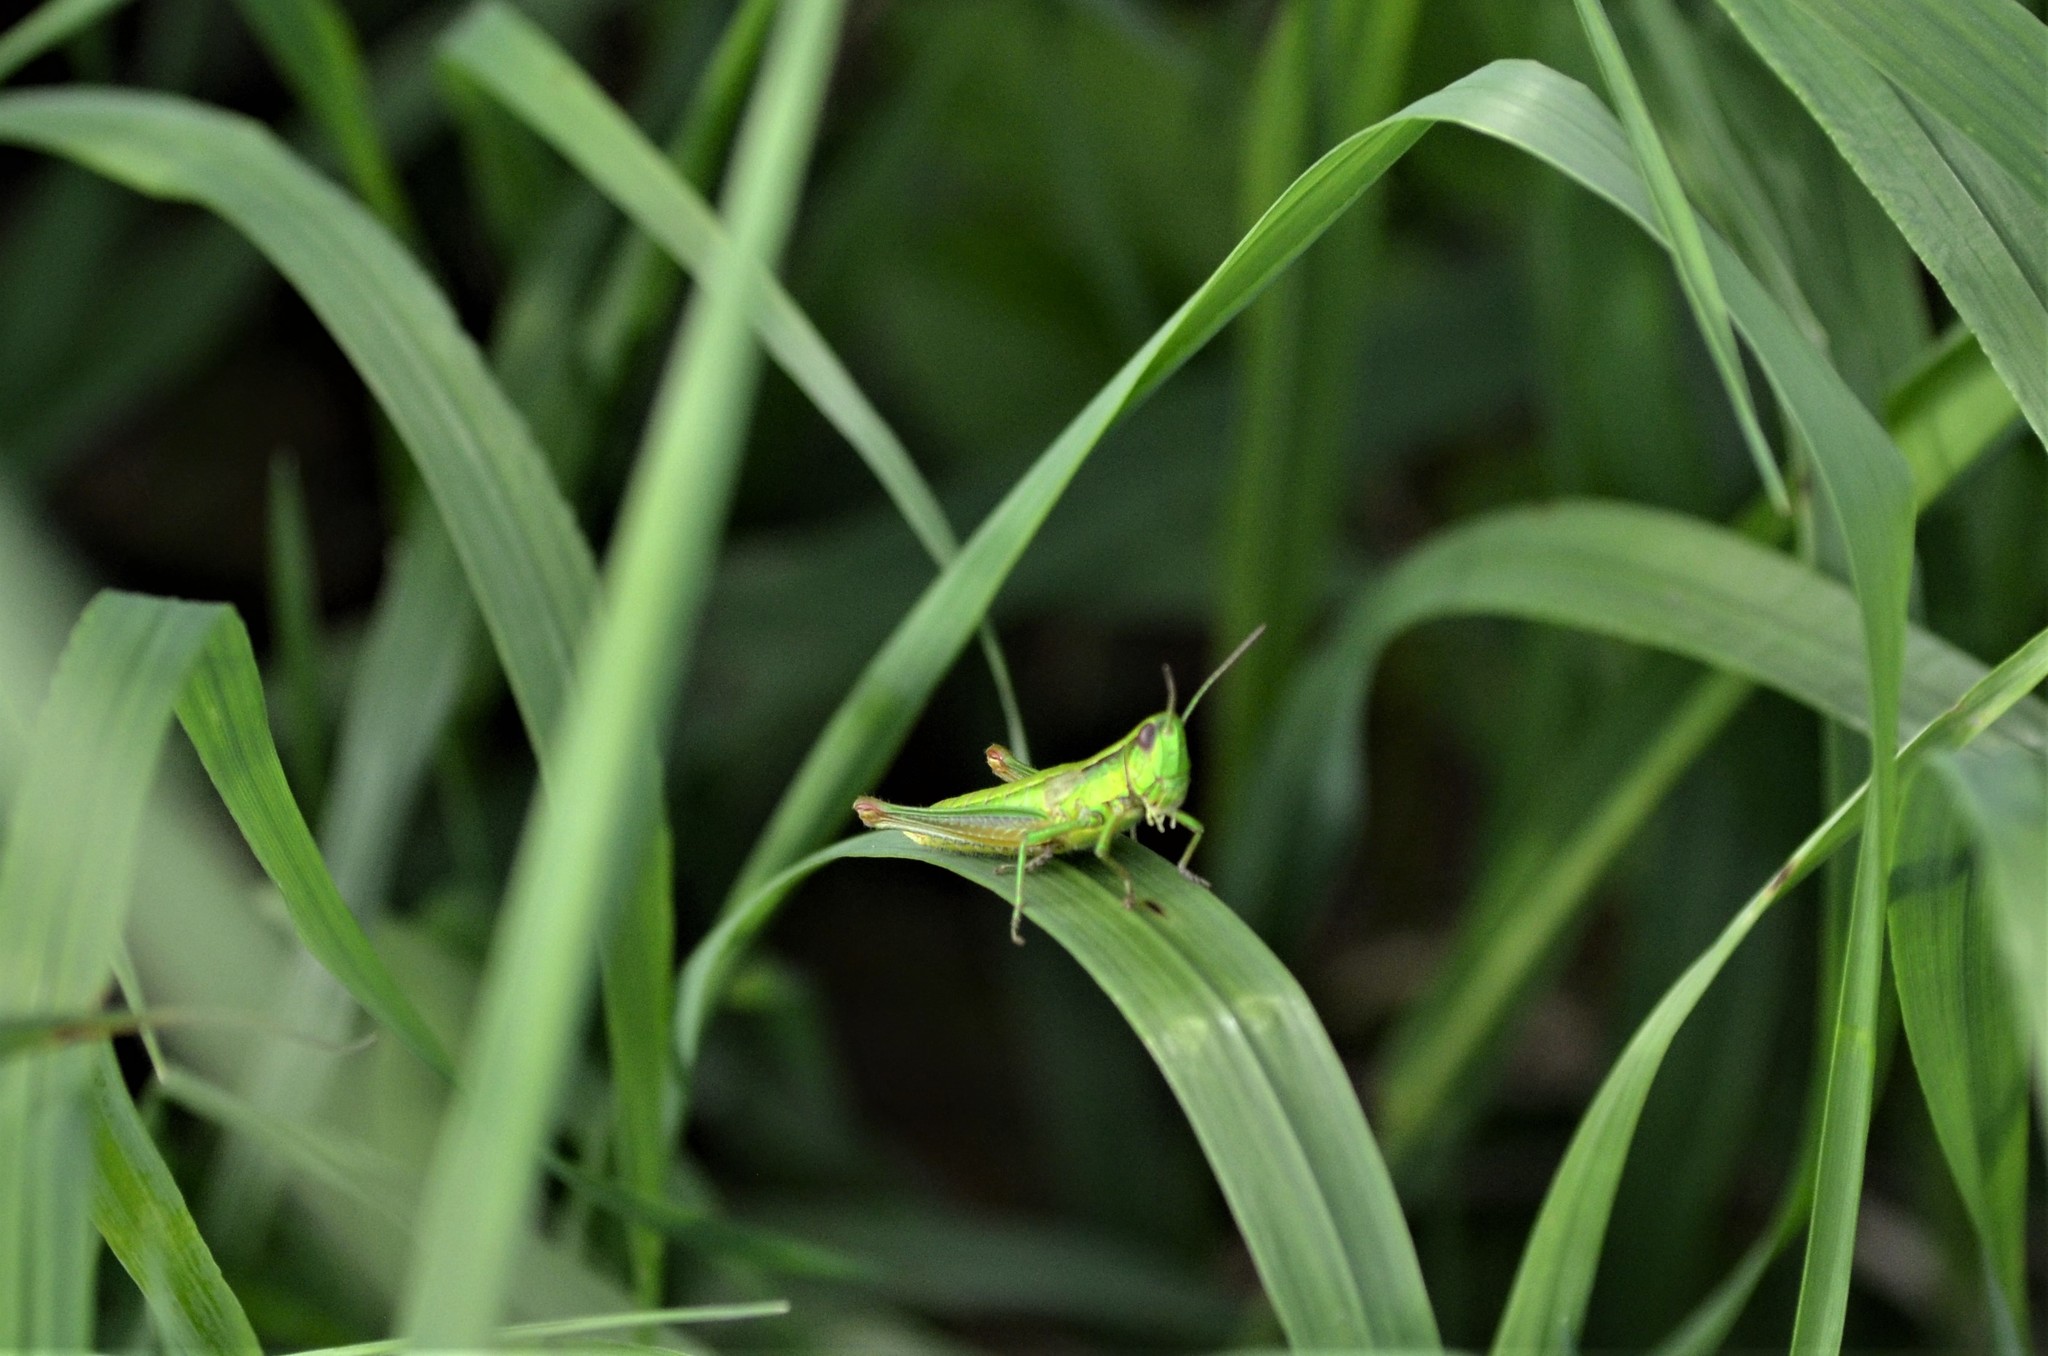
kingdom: Animalia
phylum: Arthropoda
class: Insecta
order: Orthoptera
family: Acrididae
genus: Euthystira
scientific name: Euthystira brachyptera
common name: Small gold grasshopper
